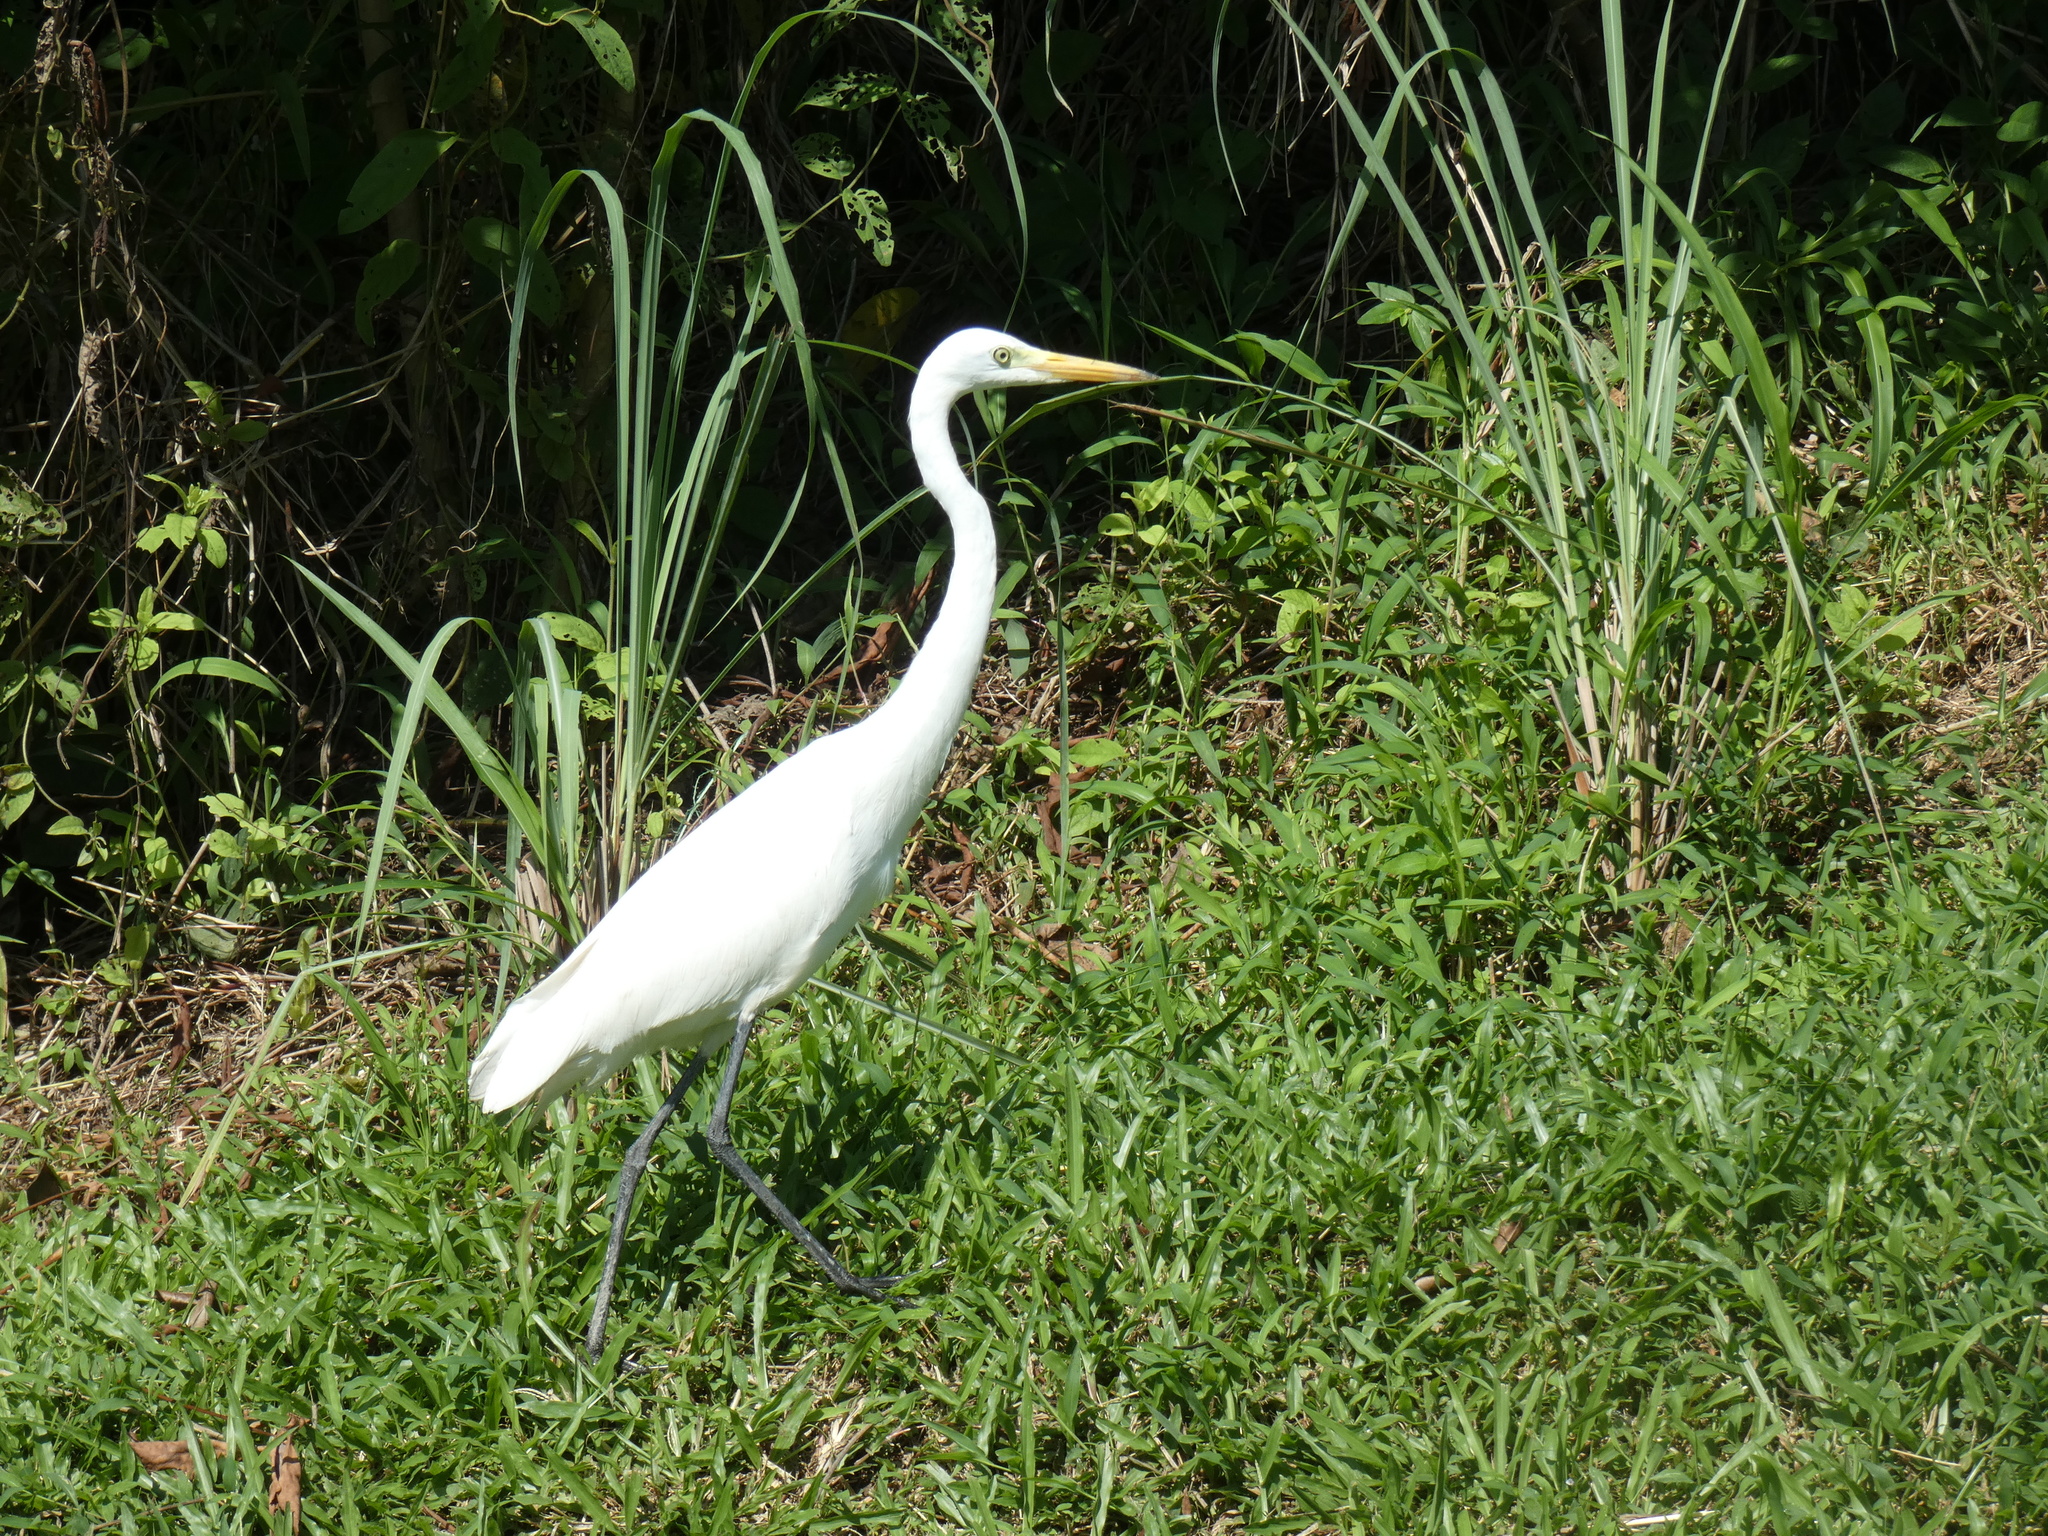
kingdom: Animalia
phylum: Chordata
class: Aves
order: Pelecaniformes
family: Ardeidae
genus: Egretta
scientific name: Egretta intermedia
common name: Intermediate egret
